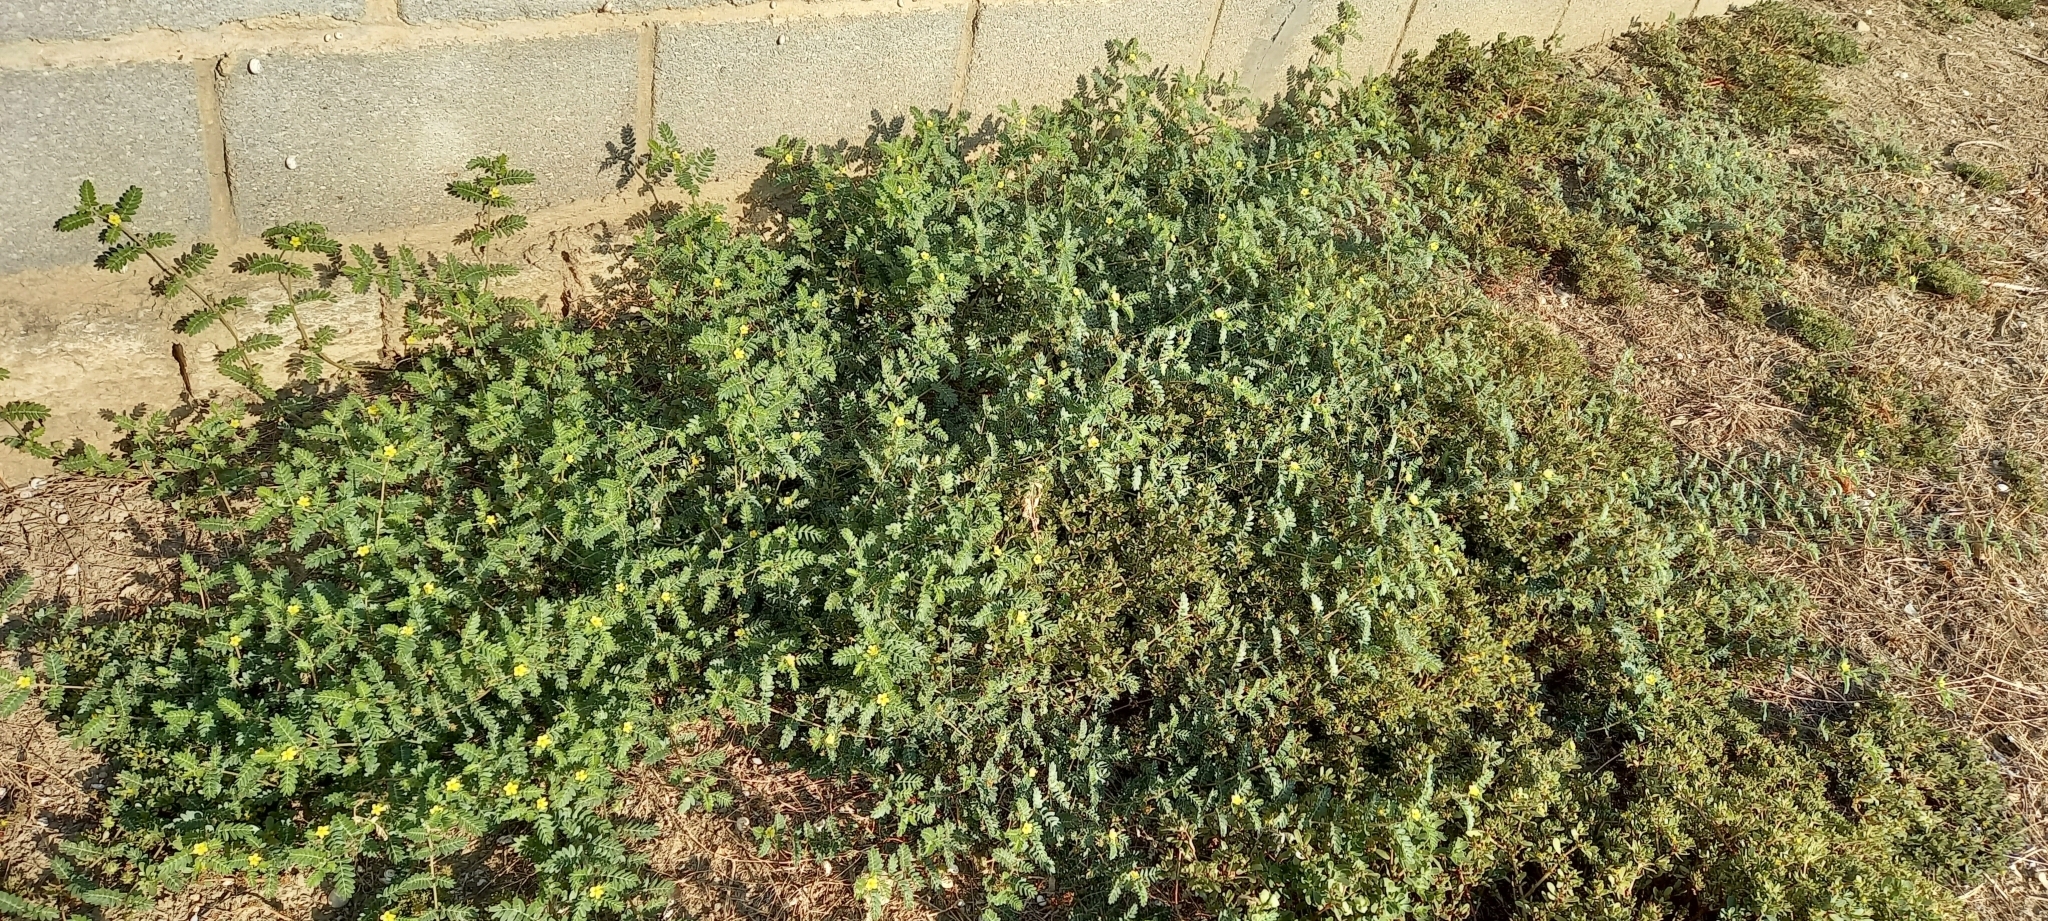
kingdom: Plantae
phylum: Tracheophyta
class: Magnoliopsida
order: Zygophyllales
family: Zygophyllaceae
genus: Tribulus
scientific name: Tribulus terrestris
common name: Puncturevine
